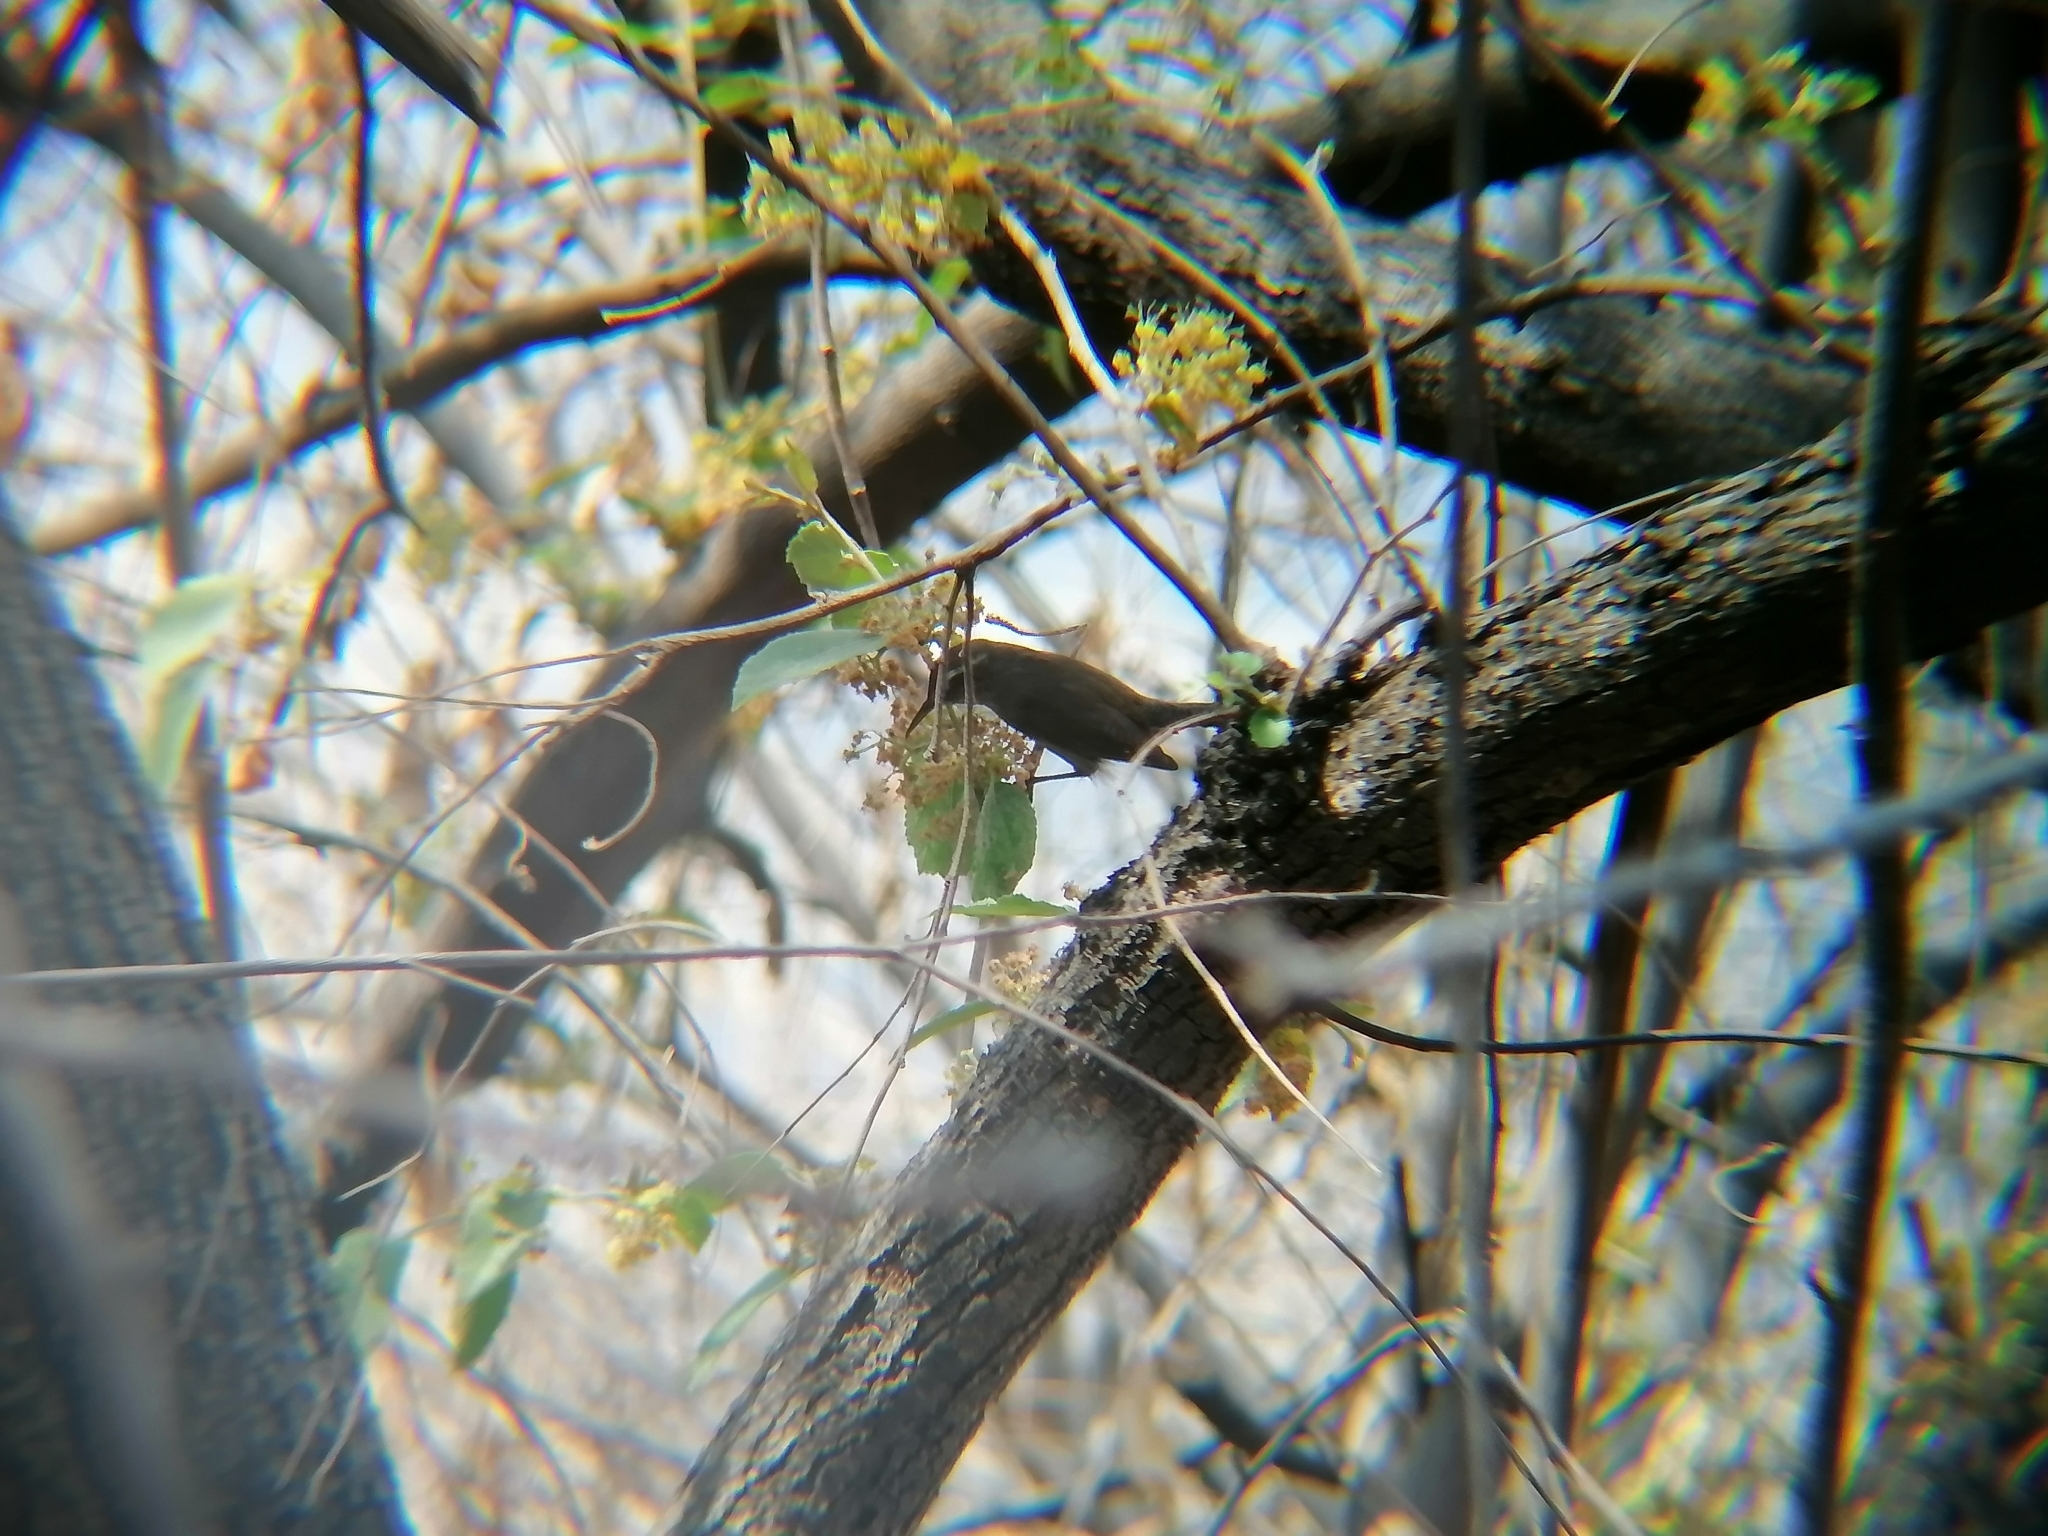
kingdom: Animalia
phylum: Chordata
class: Aves
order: Passeriformes
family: Troglodytidae
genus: Thryomanes
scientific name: Thryomanes bewickii
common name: Bewick's wren
